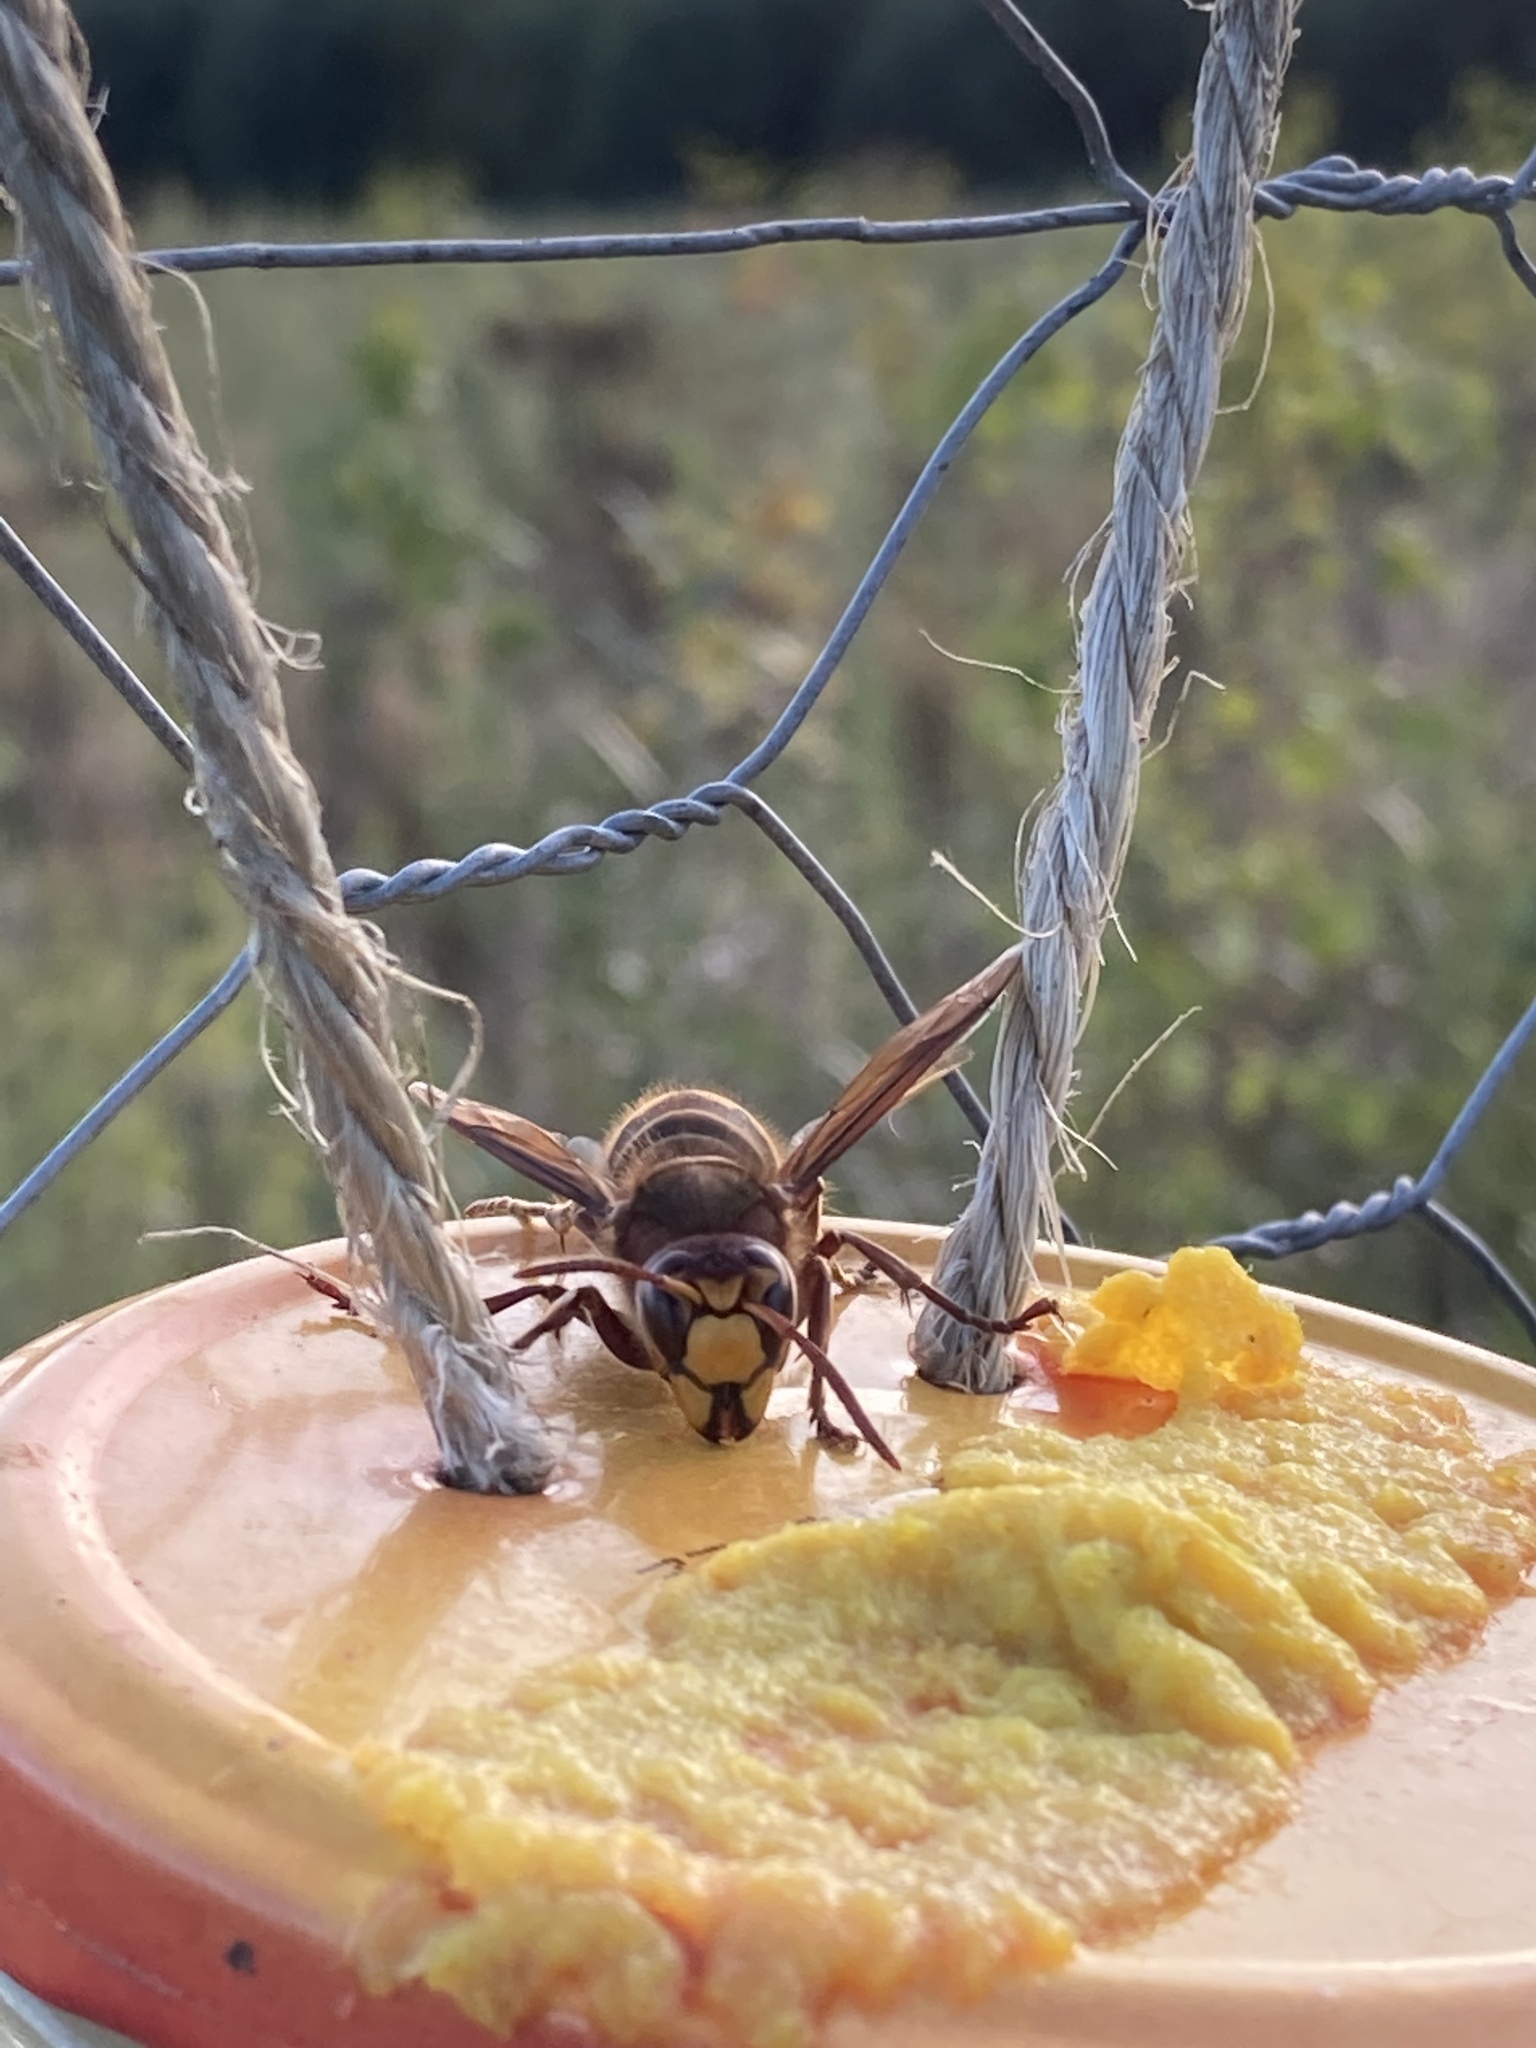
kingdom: Animalia
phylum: Arthropoda
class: Insecta
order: Hymenoptera
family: Vespidae
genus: Vespa
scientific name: Vespa crabro
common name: Hornet
